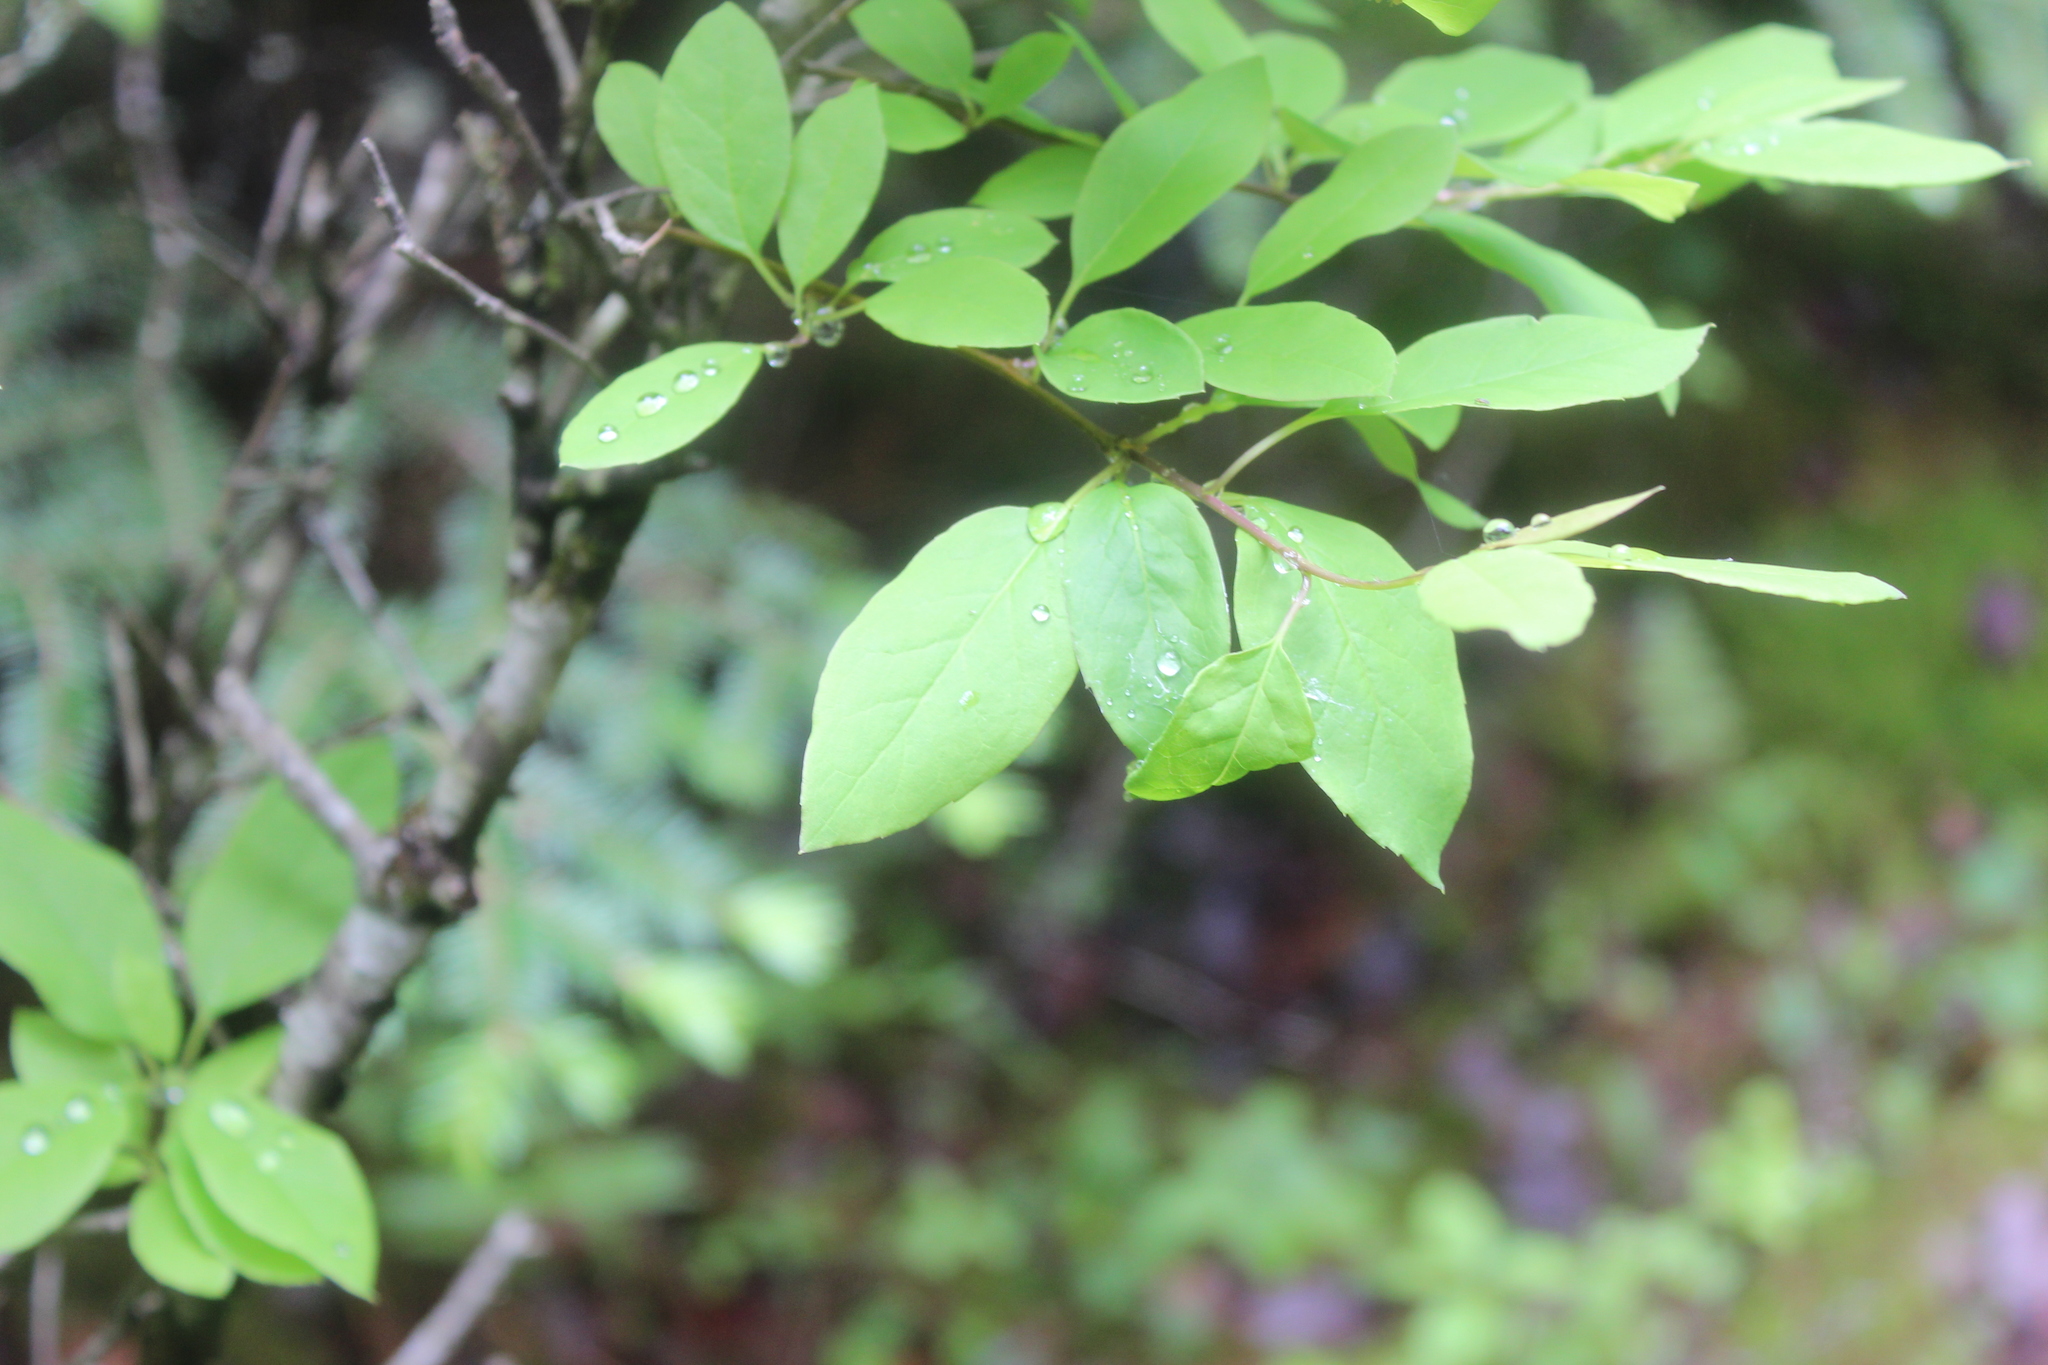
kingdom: Plantae
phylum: Tracheophyta
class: Magnoliopsida
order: Aquifoliales
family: Aquifoliaceae
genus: Ilex
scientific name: Ilex mucronata
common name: Catberry
